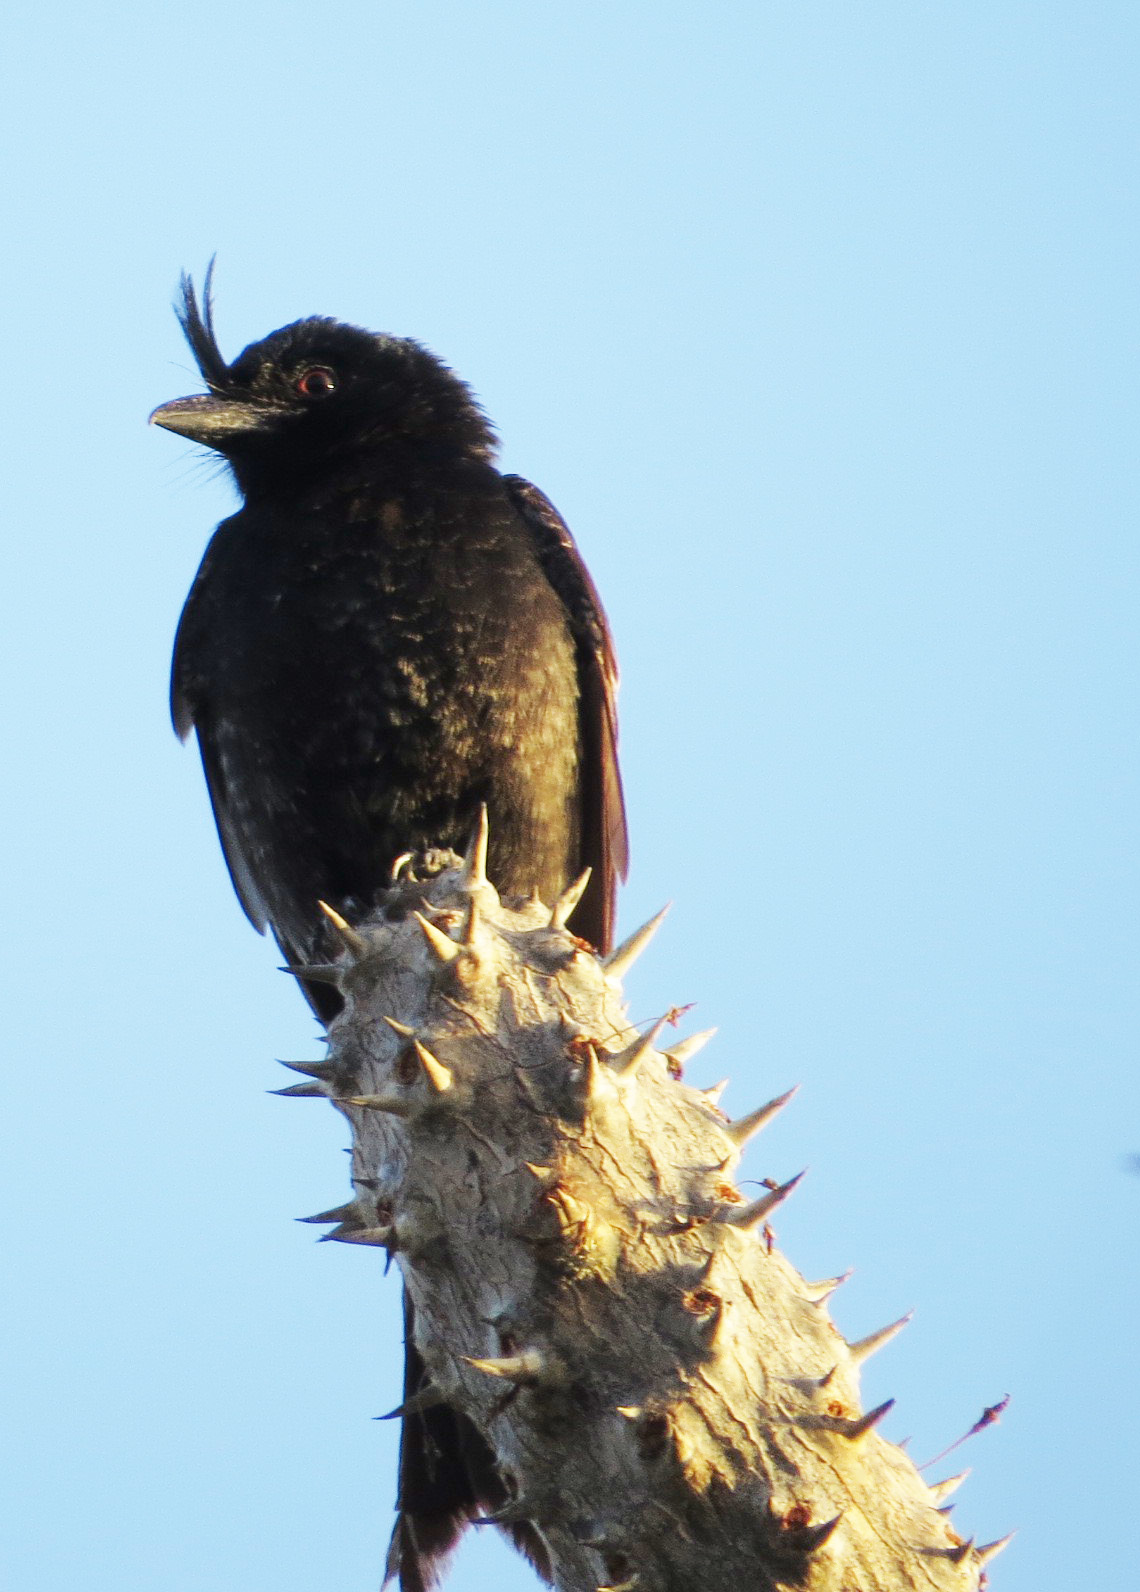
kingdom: Animalia
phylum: Chordata
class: Aves
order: Passeriformes
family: Dicruridae
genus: Dicrurus
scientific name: Dicrurus forficatus
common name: Crested drongo
